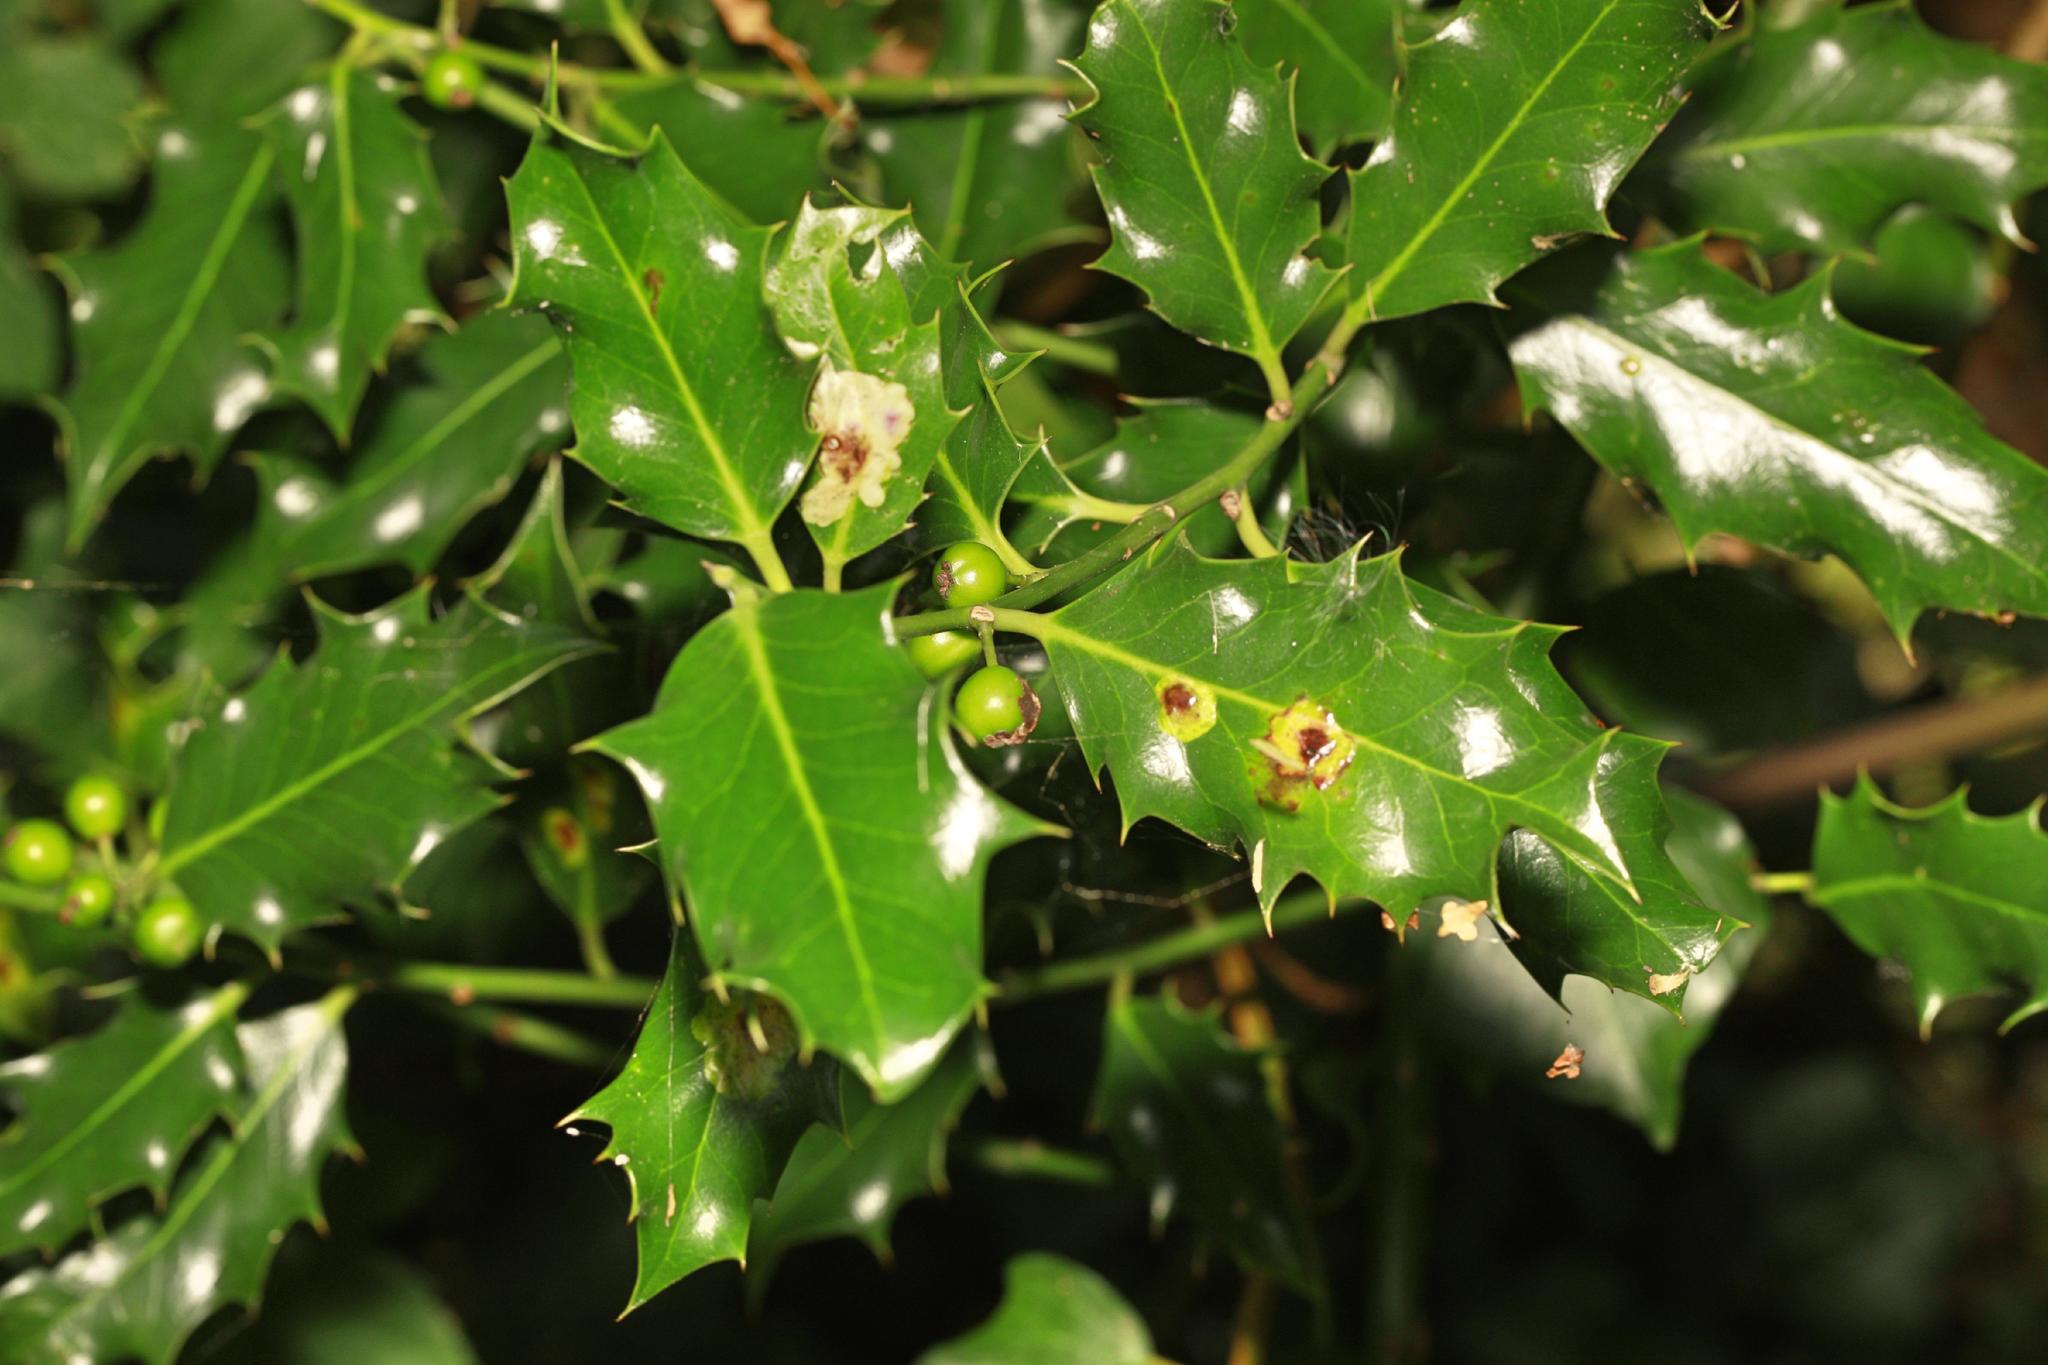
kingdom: Plantae
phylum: Tracheophyta
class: Magnoliopsida
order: Aquifoliales
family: Aquifoliaceae
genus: Ilex
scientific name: Ilex aquifolium
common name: English holly
